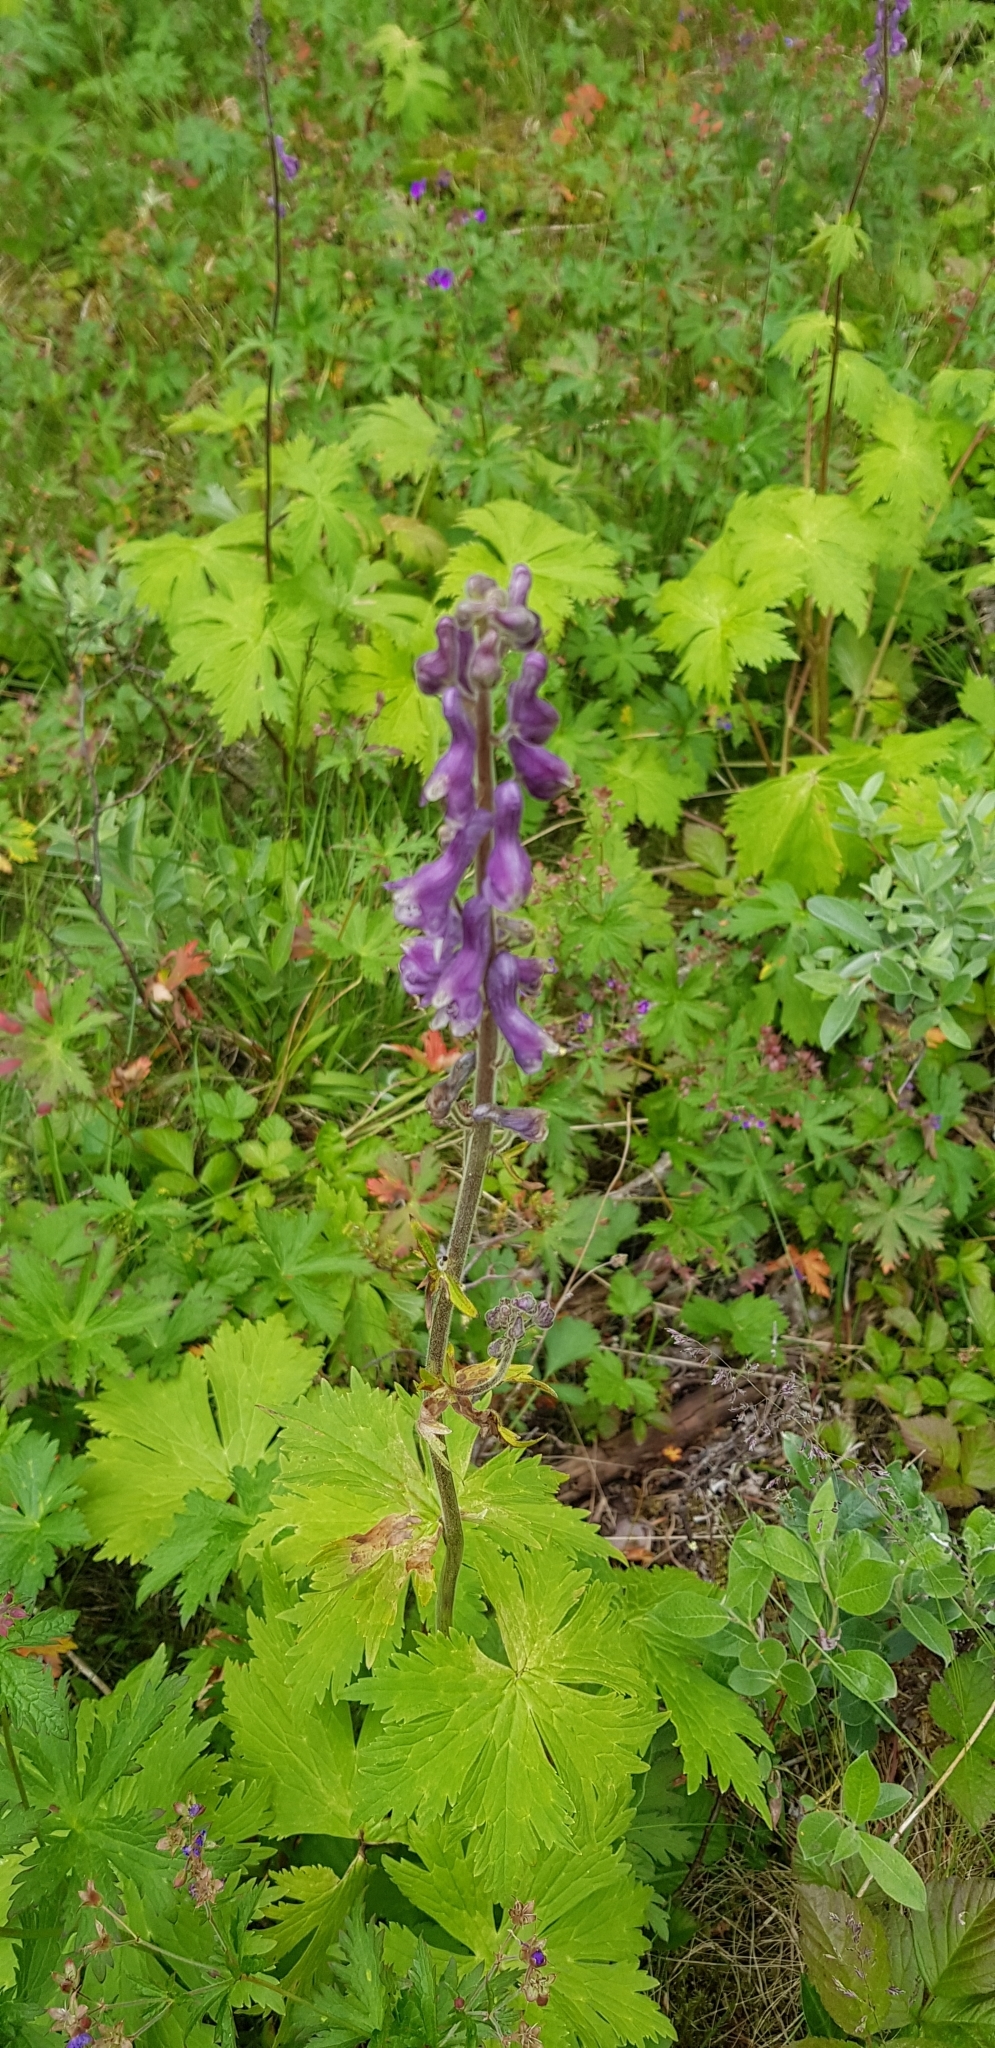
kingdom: Plantae
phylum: Tracheophyta
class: Magnoliopsida
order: Ranunculales
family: Ranunculaceae
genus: Aconitum
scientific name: Aconitum septentrionale
